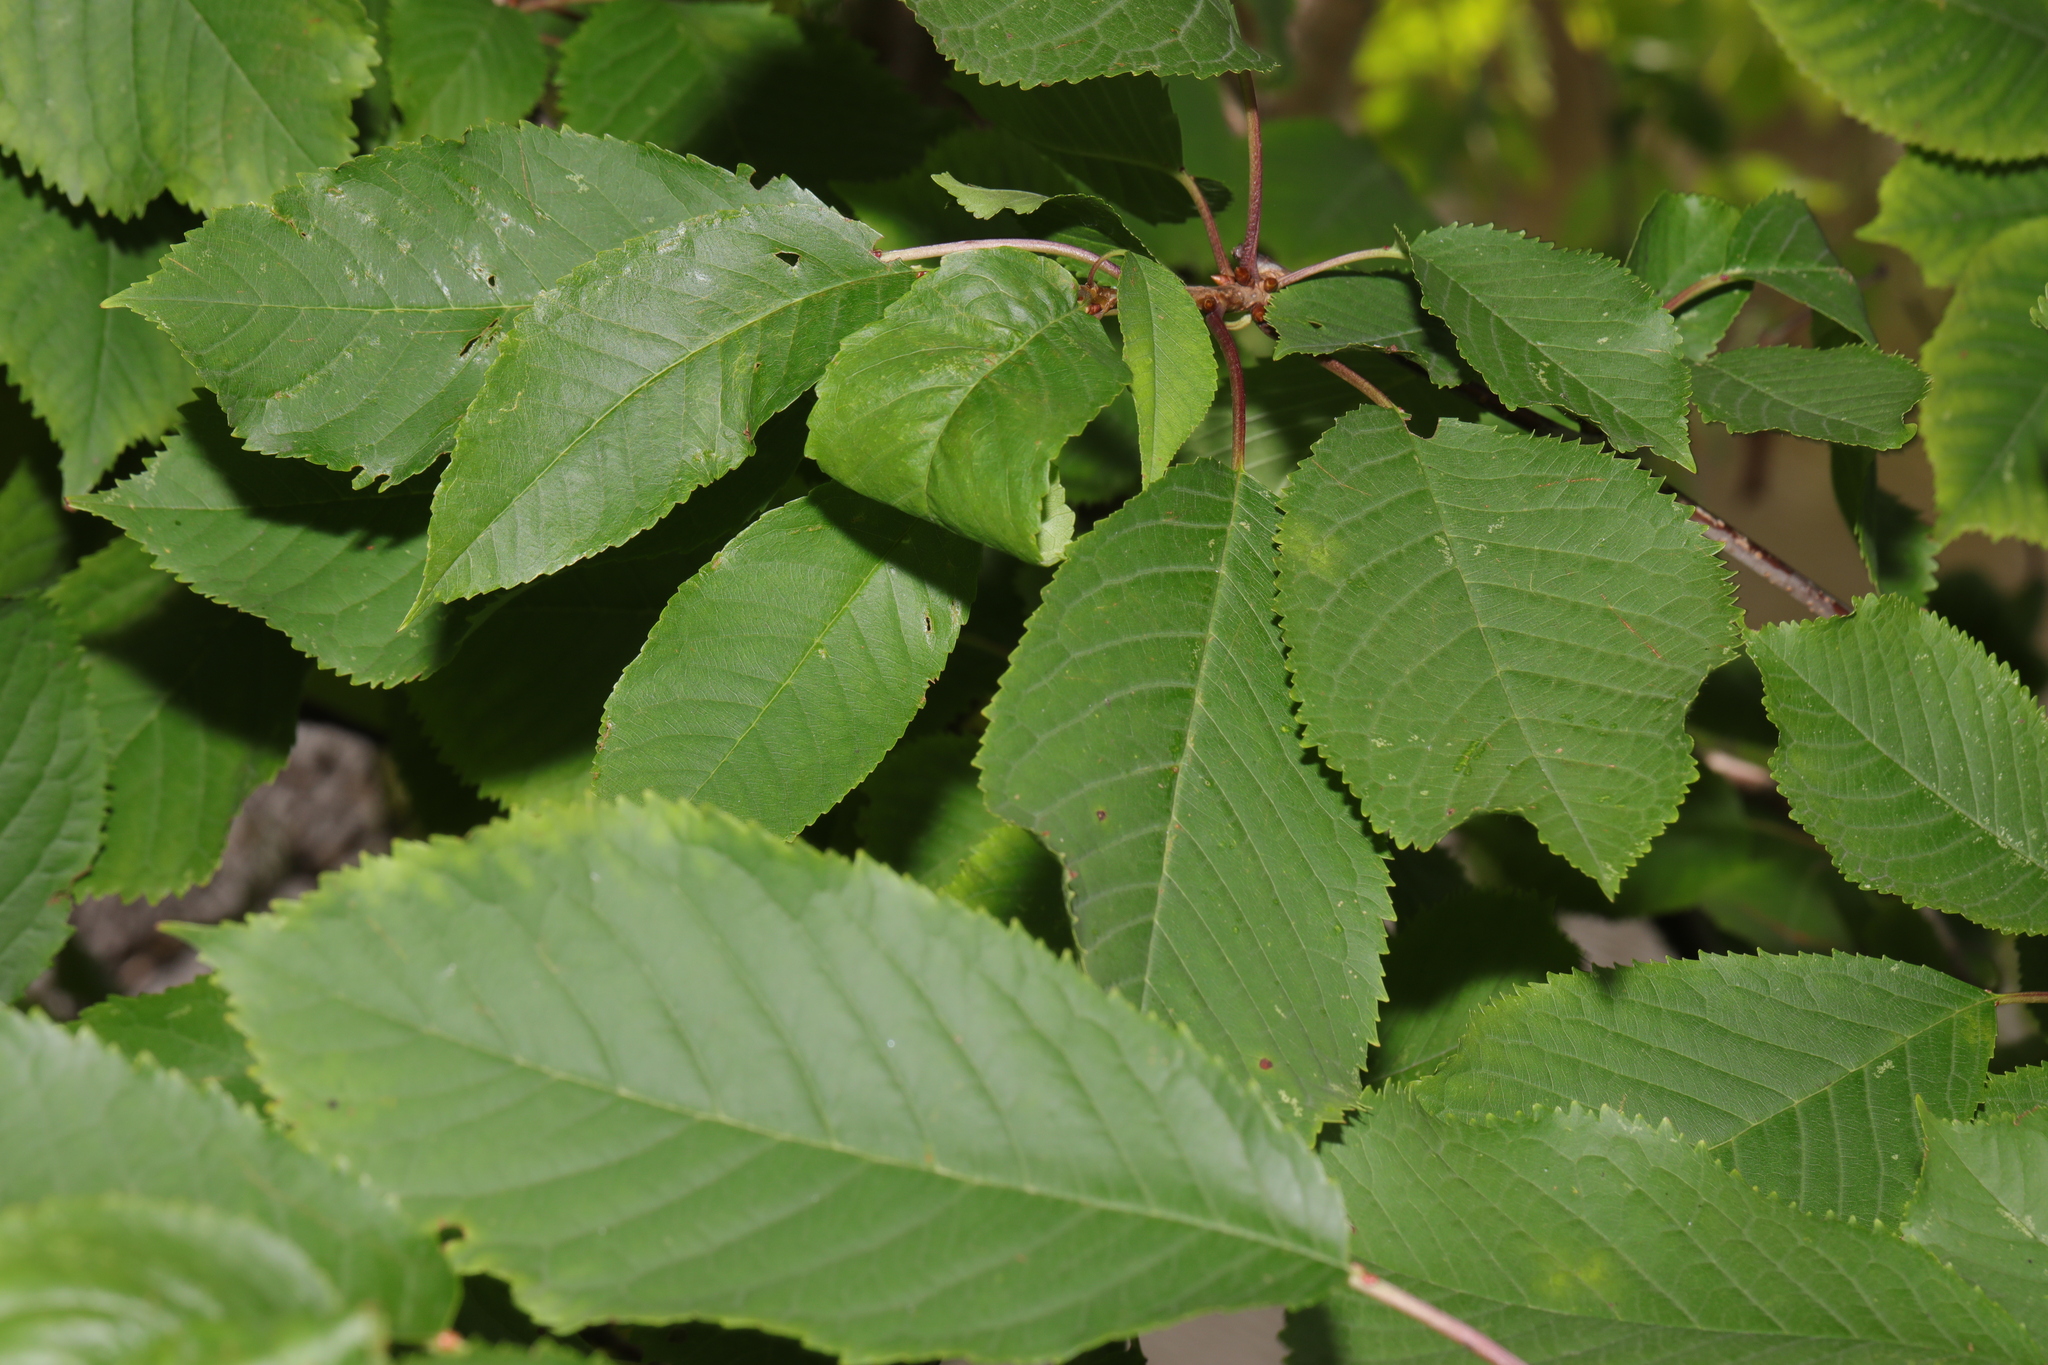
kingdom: Plantae
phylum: Tracheophyta
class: Magnoliopsida
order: Rosales
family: Rosaceae
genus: Prunus
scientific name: Prunus avium
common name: Sweet cherry
